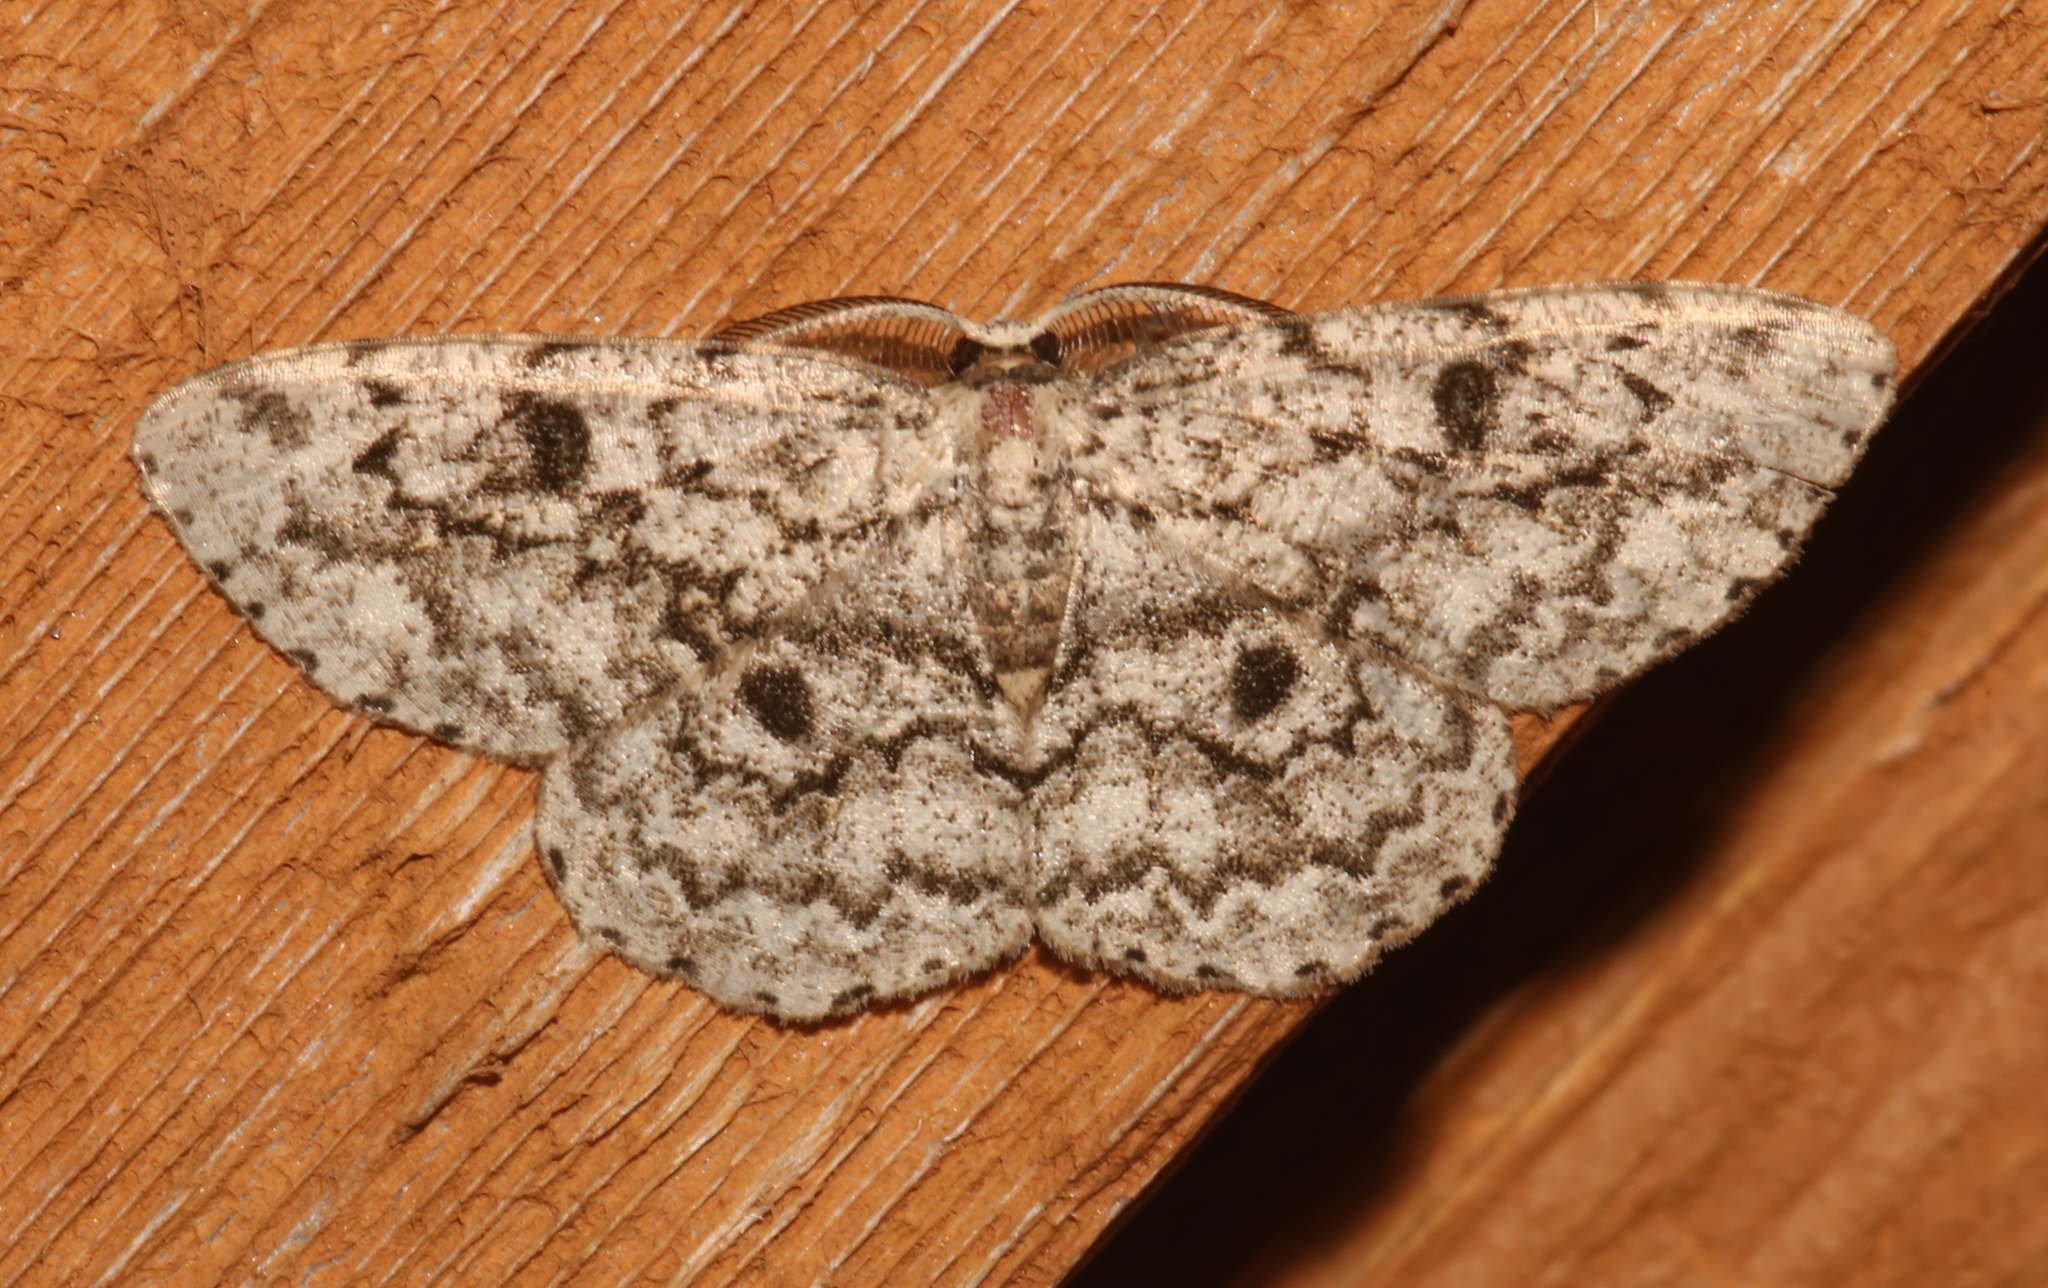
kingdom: Animalia
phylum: Arthropoda
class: Insecta
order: Lepidoptera
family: Geometridae
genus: Hypomecis
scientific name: Hypomecis umbrosaria
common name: Umber moth
